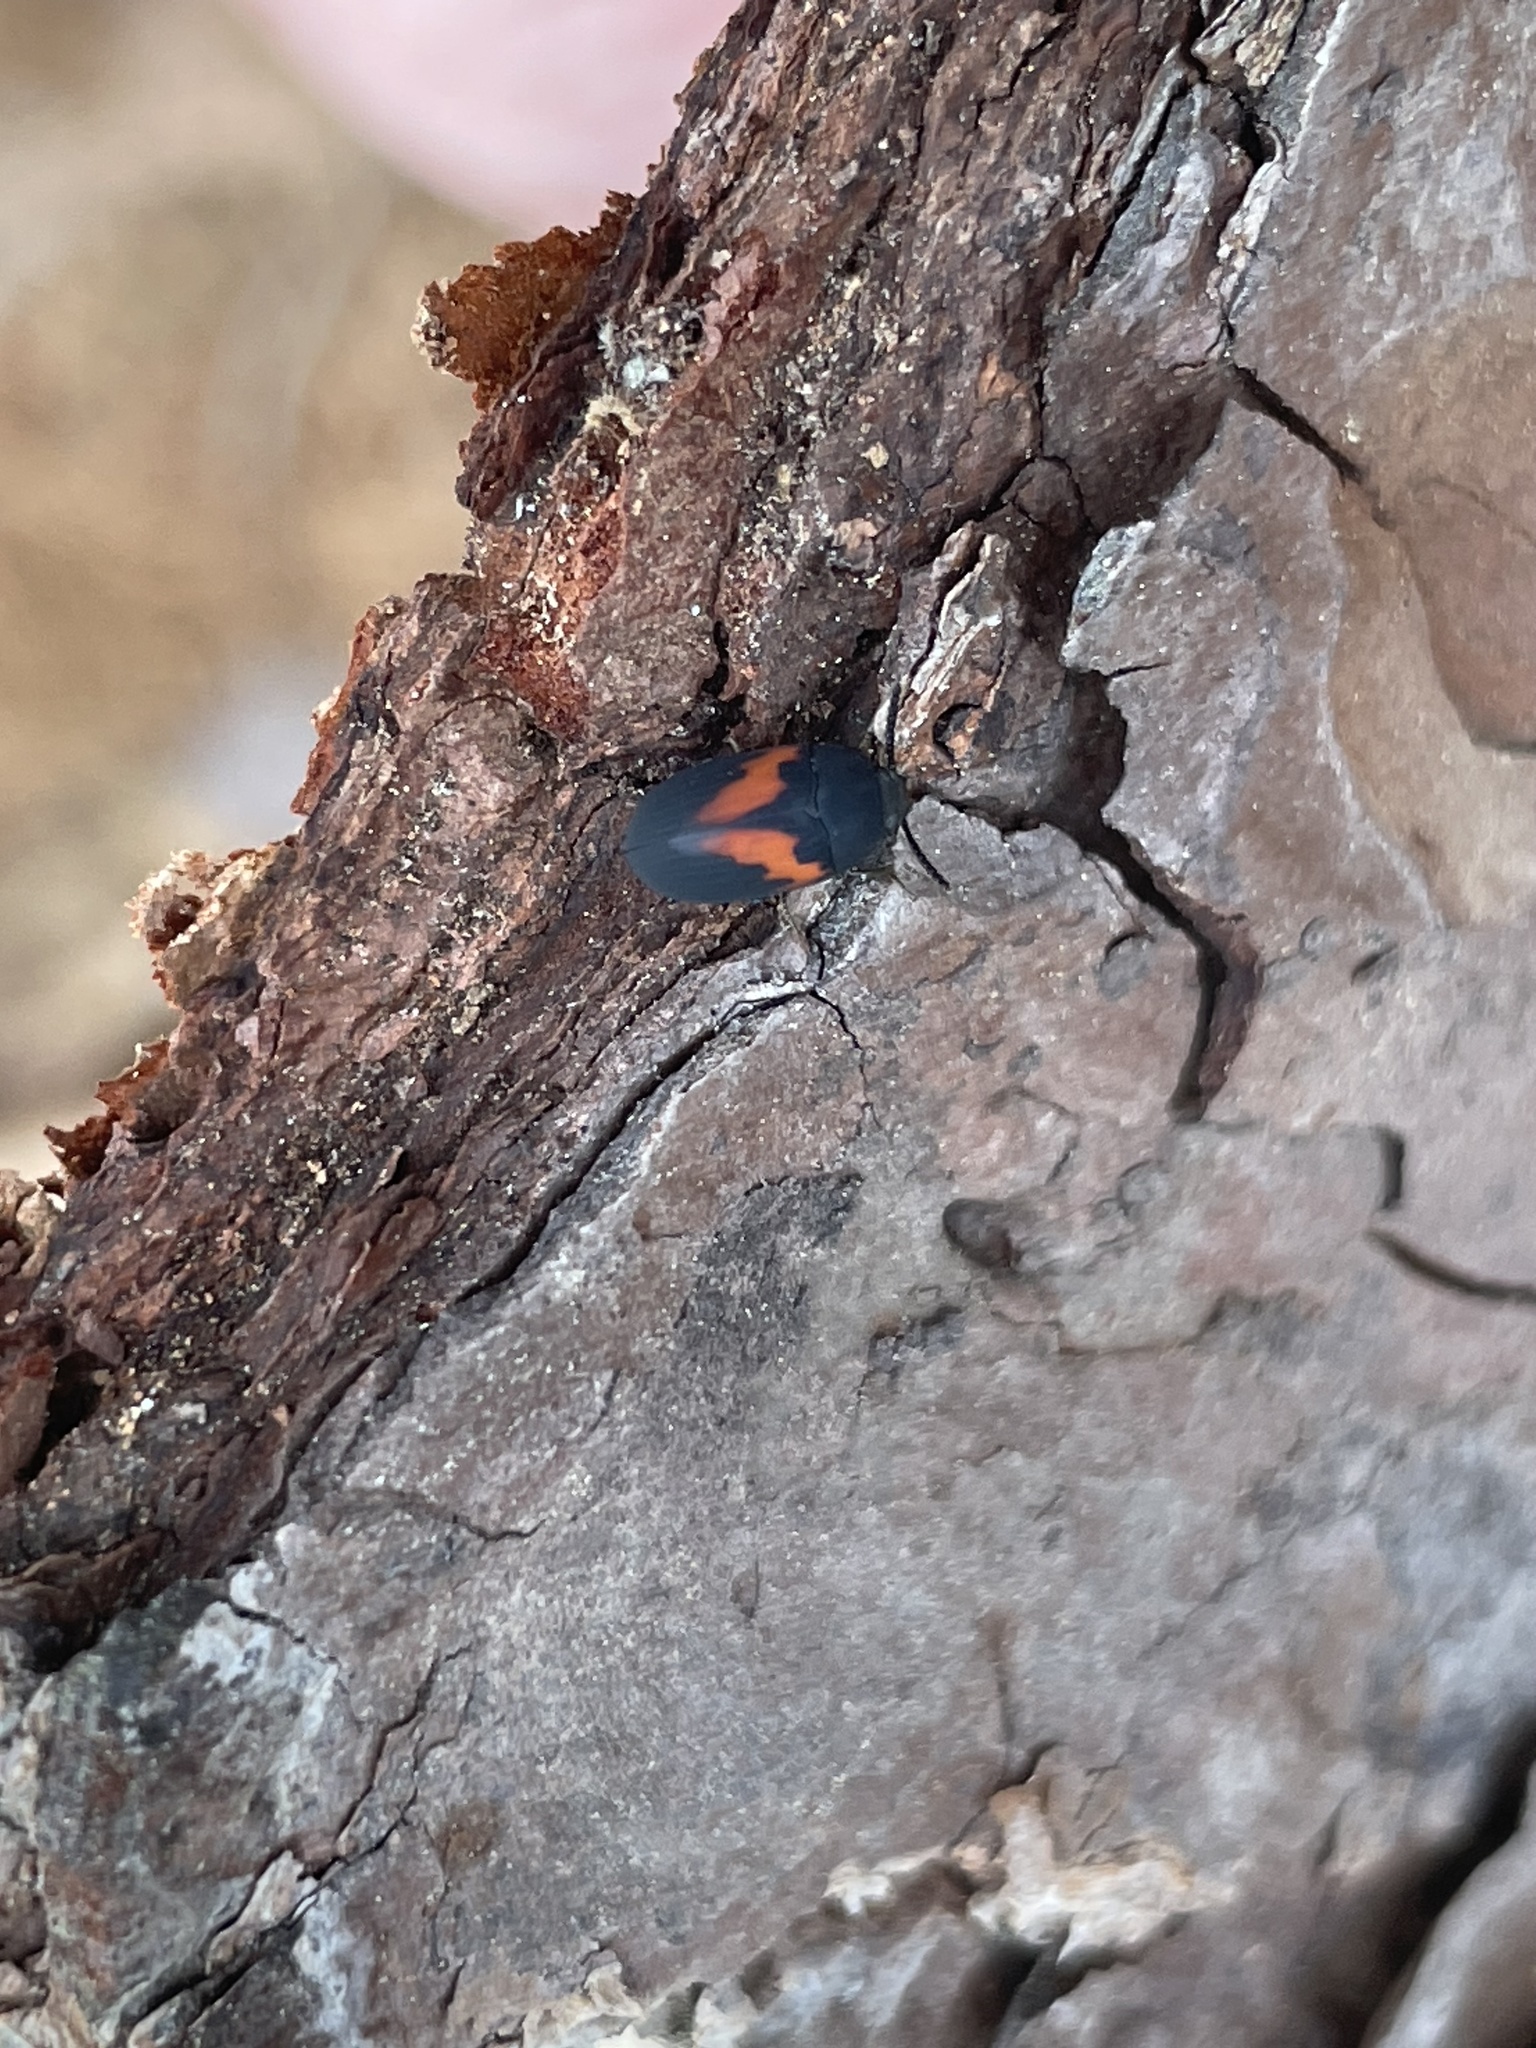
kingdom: Animalia
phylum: Arthropoda
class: Insecta
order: Coleoptera
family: Tenebrionidae
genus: Platydema
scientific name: Platydema elliptica
